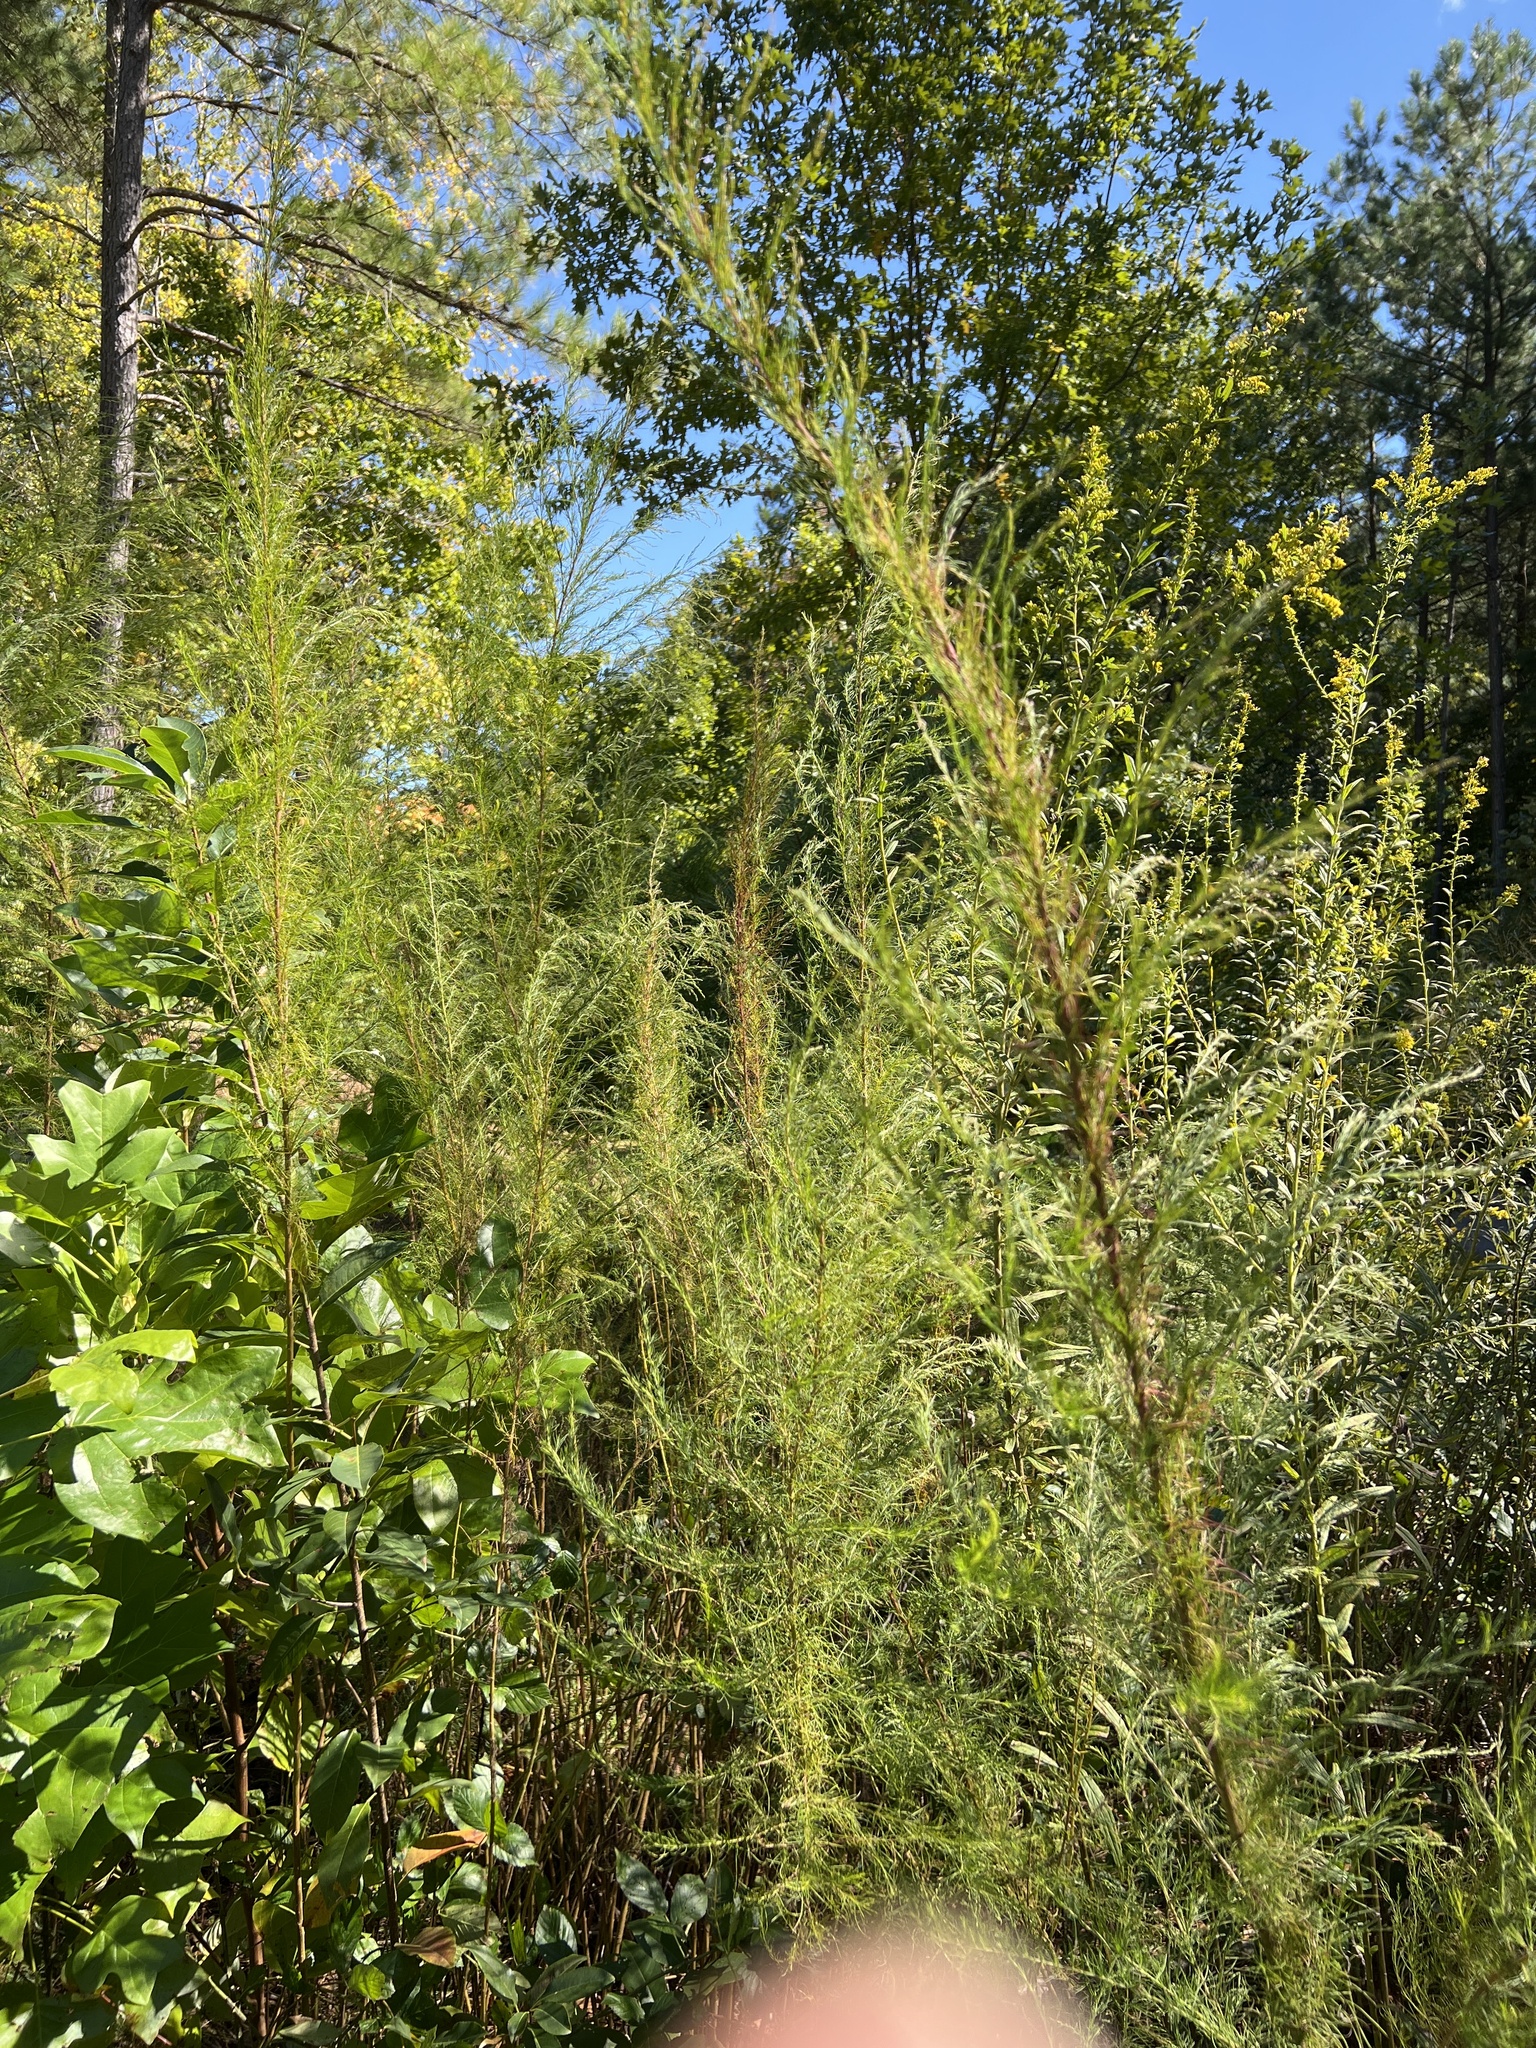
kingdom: Plantae
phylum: Tracheophyta
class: Magnoliopsida
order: Asterales
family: Asteraceae
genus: Eupatorium
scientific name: Eupatorium capillifolium
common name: Dog-fennel
